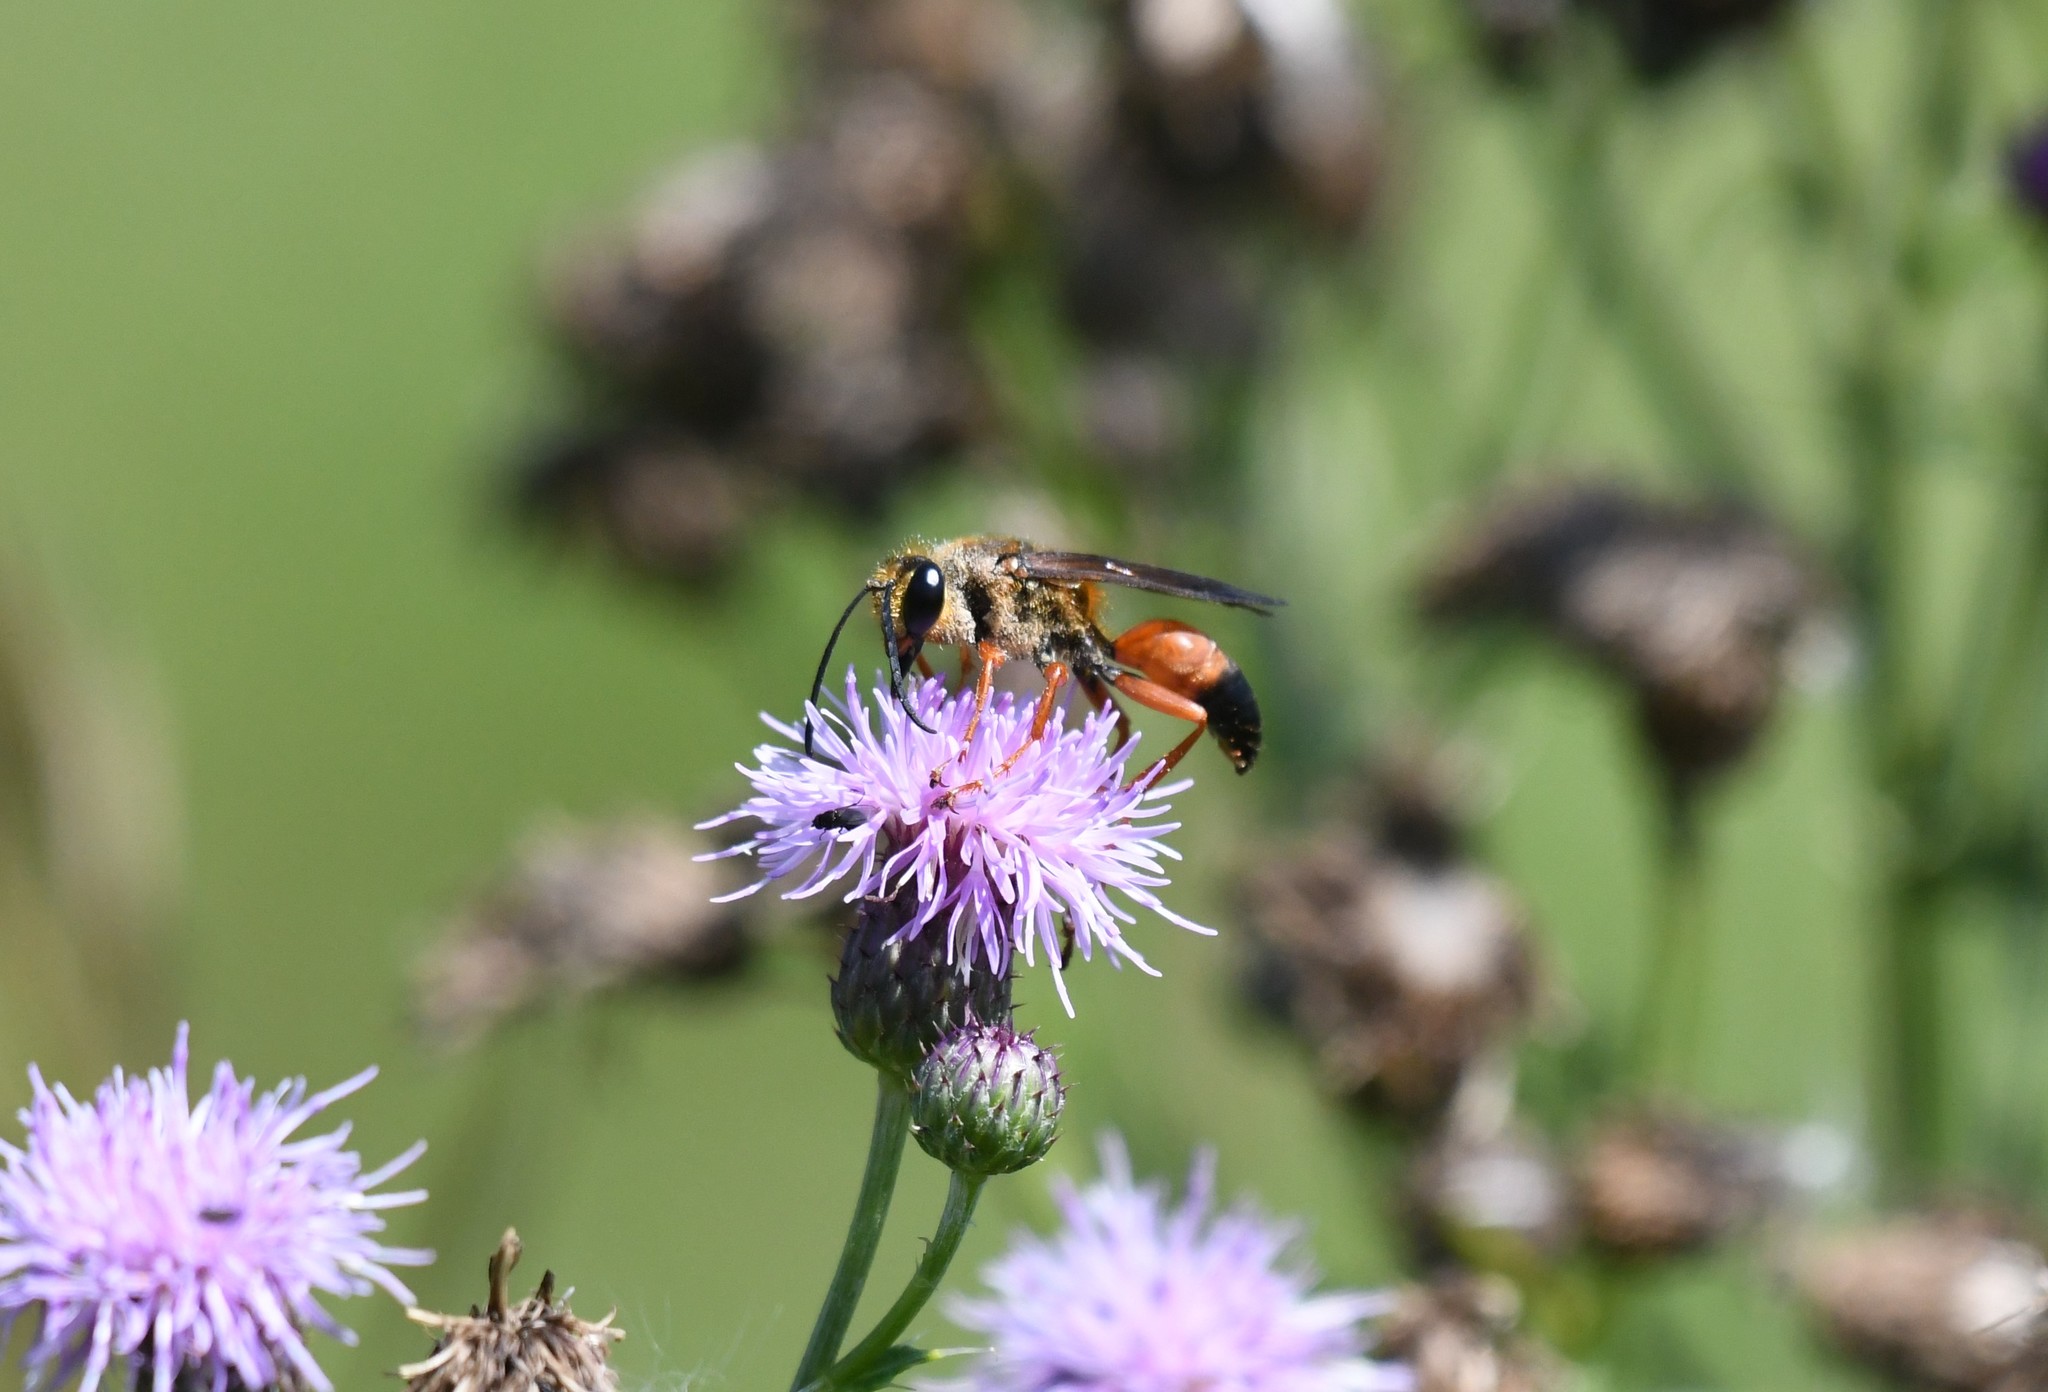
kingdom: Animalia
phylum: Arthropoda
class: Insecta
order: Hymenoptera
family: Sphecidae
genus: Sphex
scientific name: Sphex ichneumoneus
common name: Great golden digger wasp
